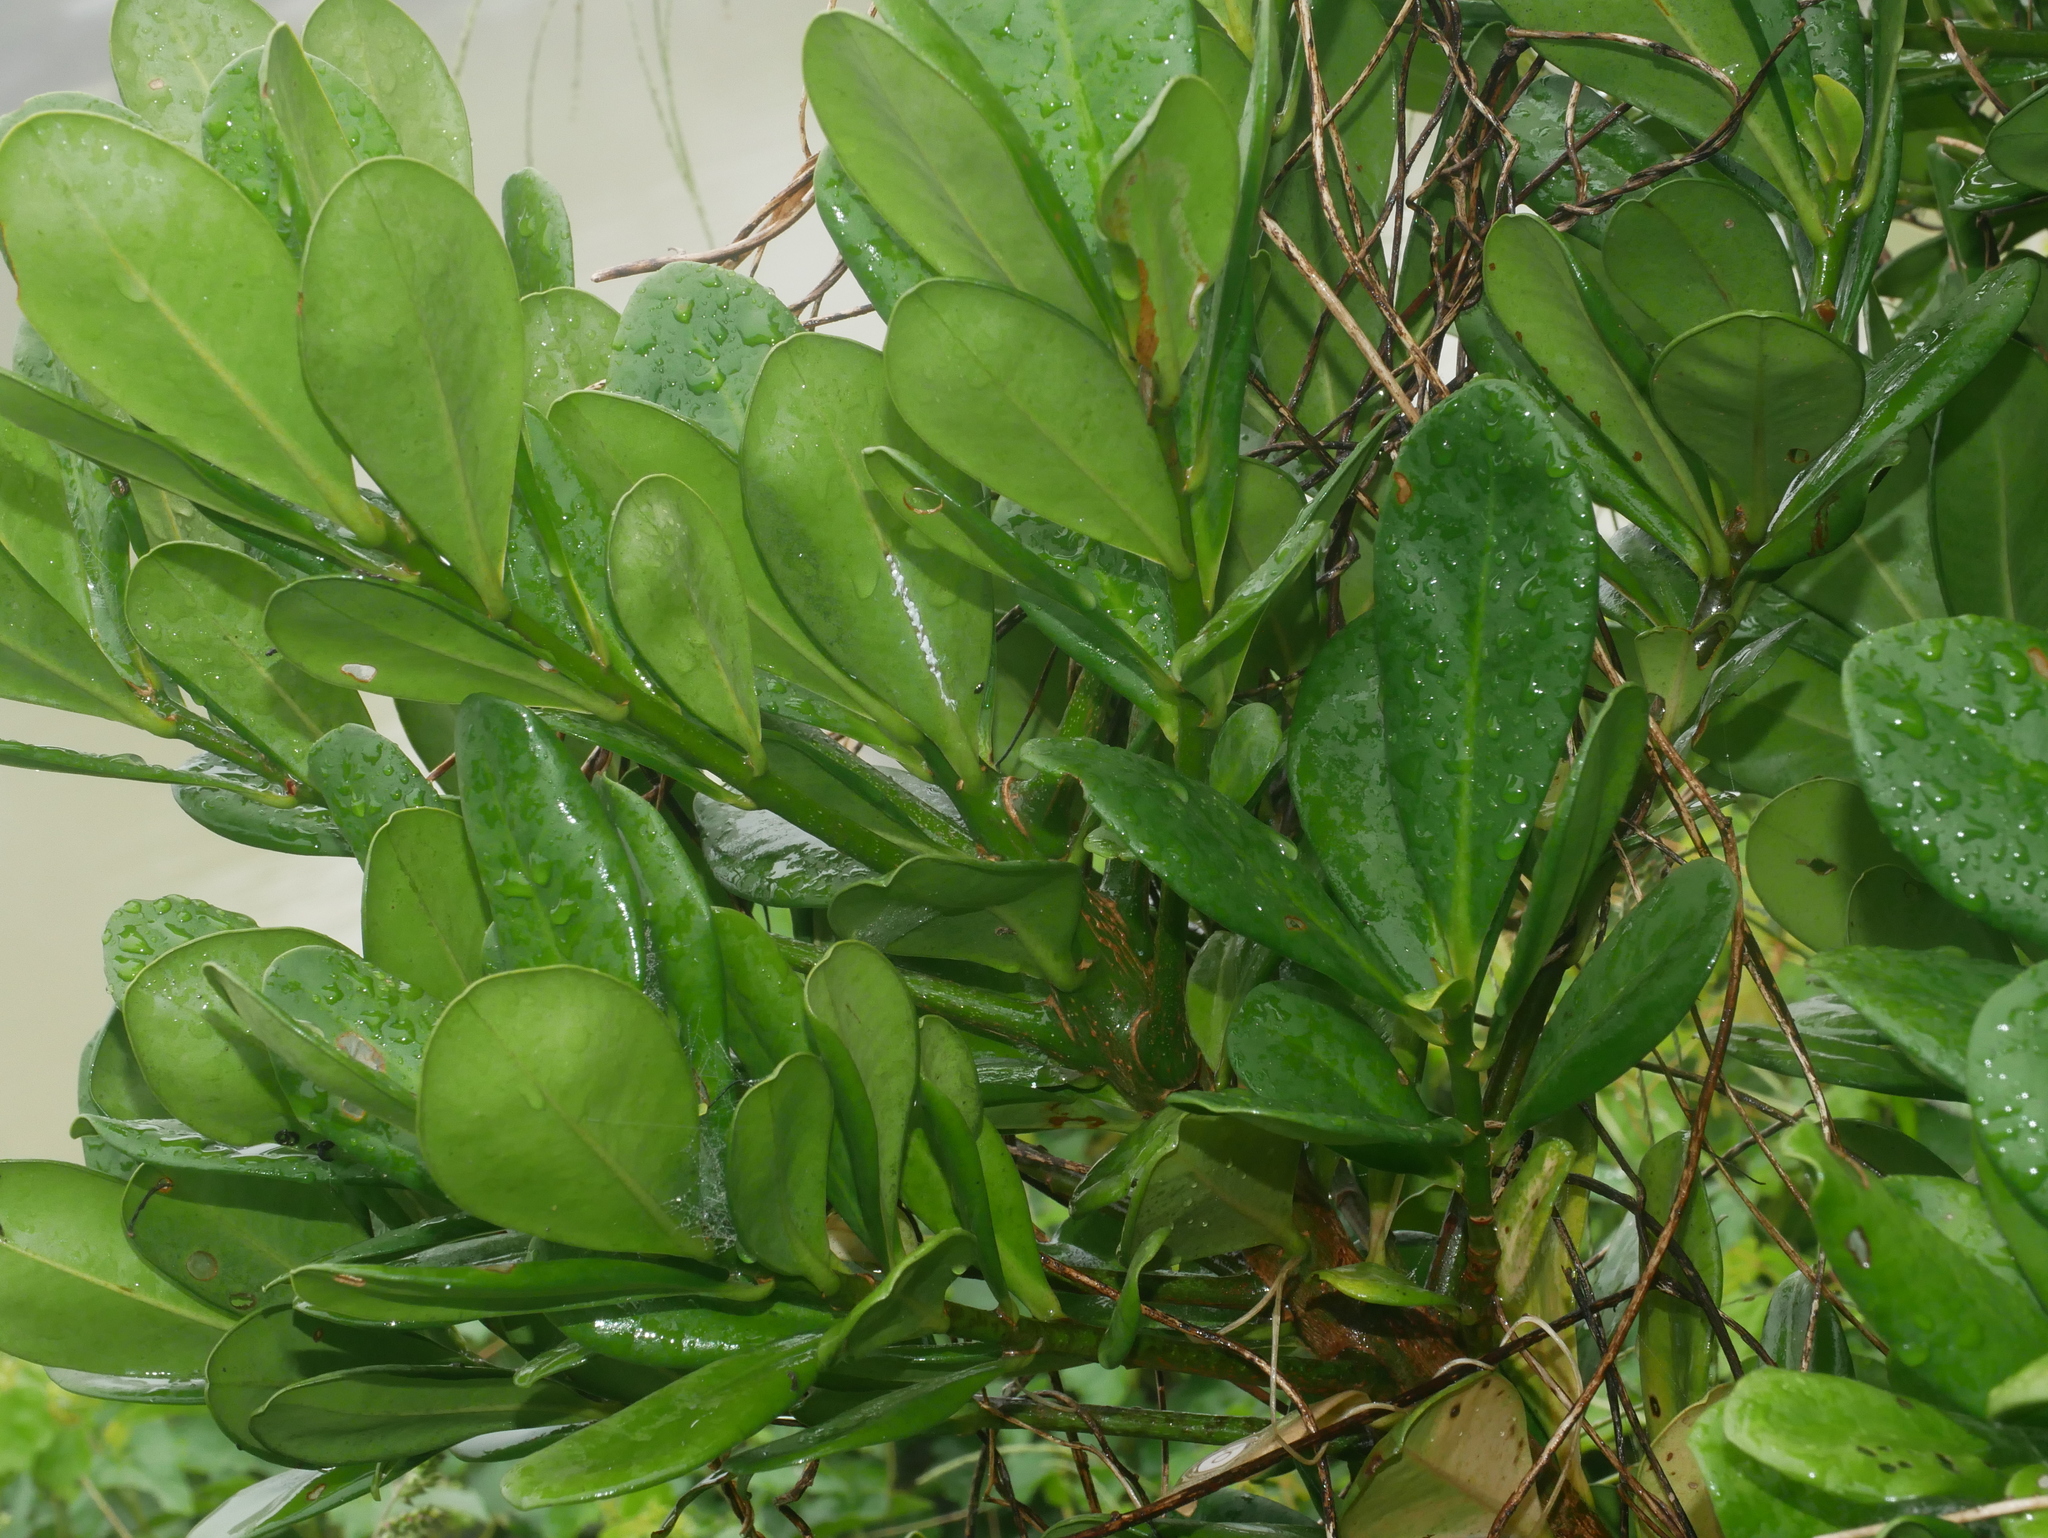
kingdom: Plantae
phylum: Tracheophyta
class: Magnoliopsida
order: Ericales
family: Primulaceae
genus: Ardisia
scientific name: Ardisia elliptica
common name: Shoebutton
